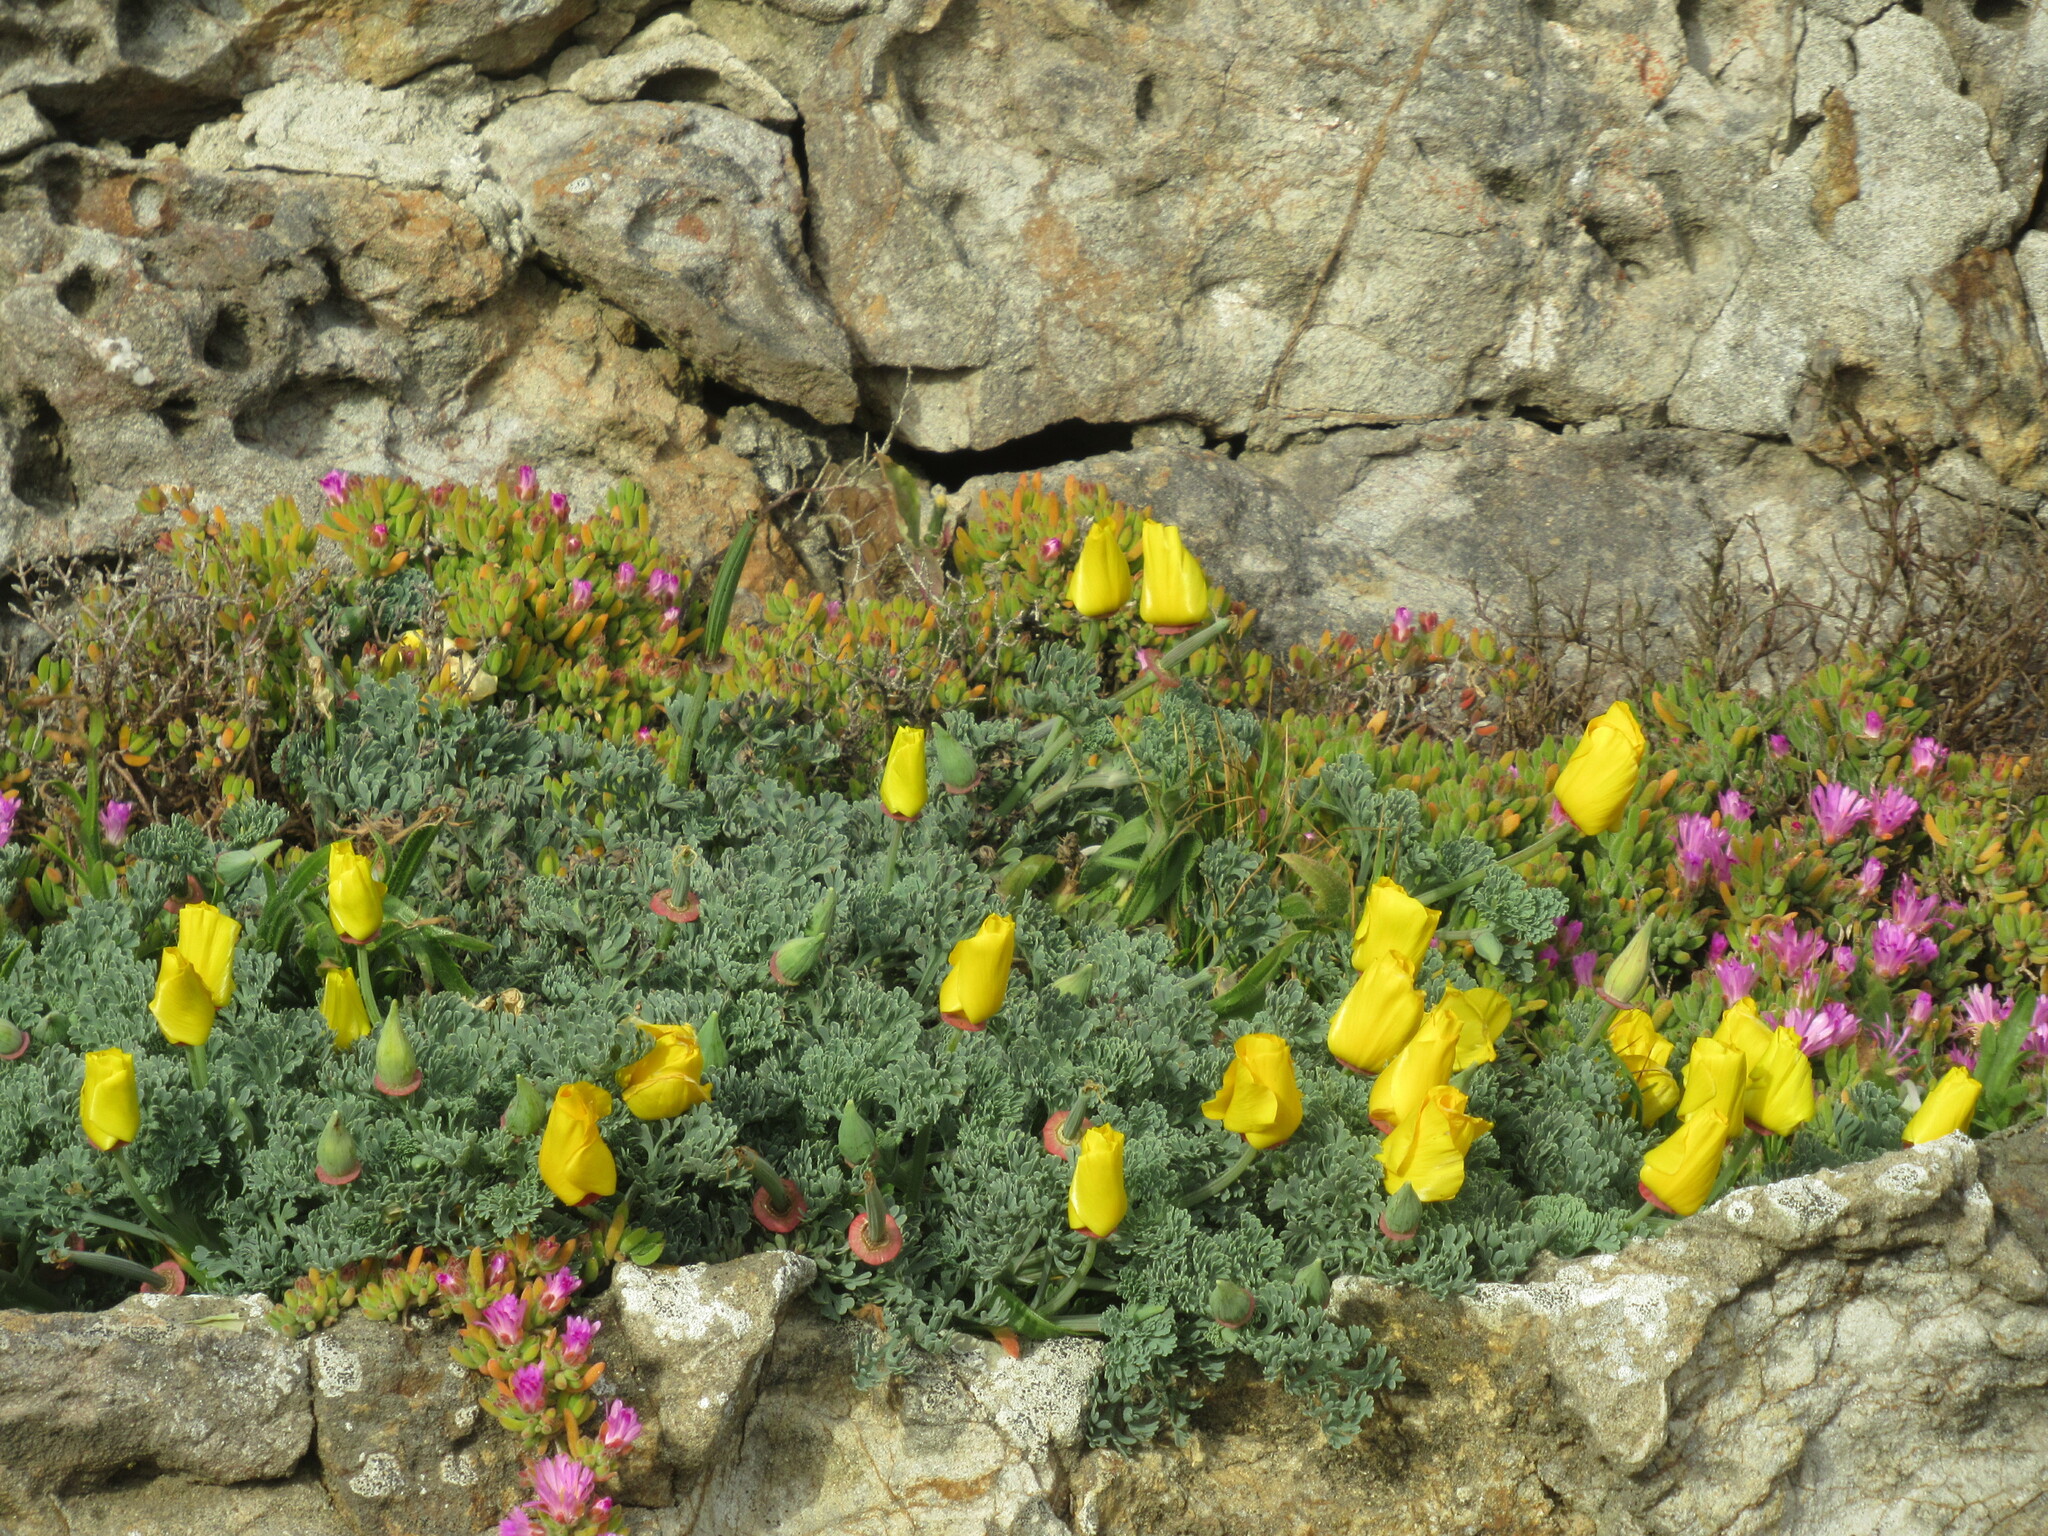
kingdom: Plantae
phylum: Tracheophyta
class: Magnoliopsida
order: Ranunculales
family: Papaveraceae
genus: Eschscholzia
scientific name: Eschscholzia californica
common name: California poppy
